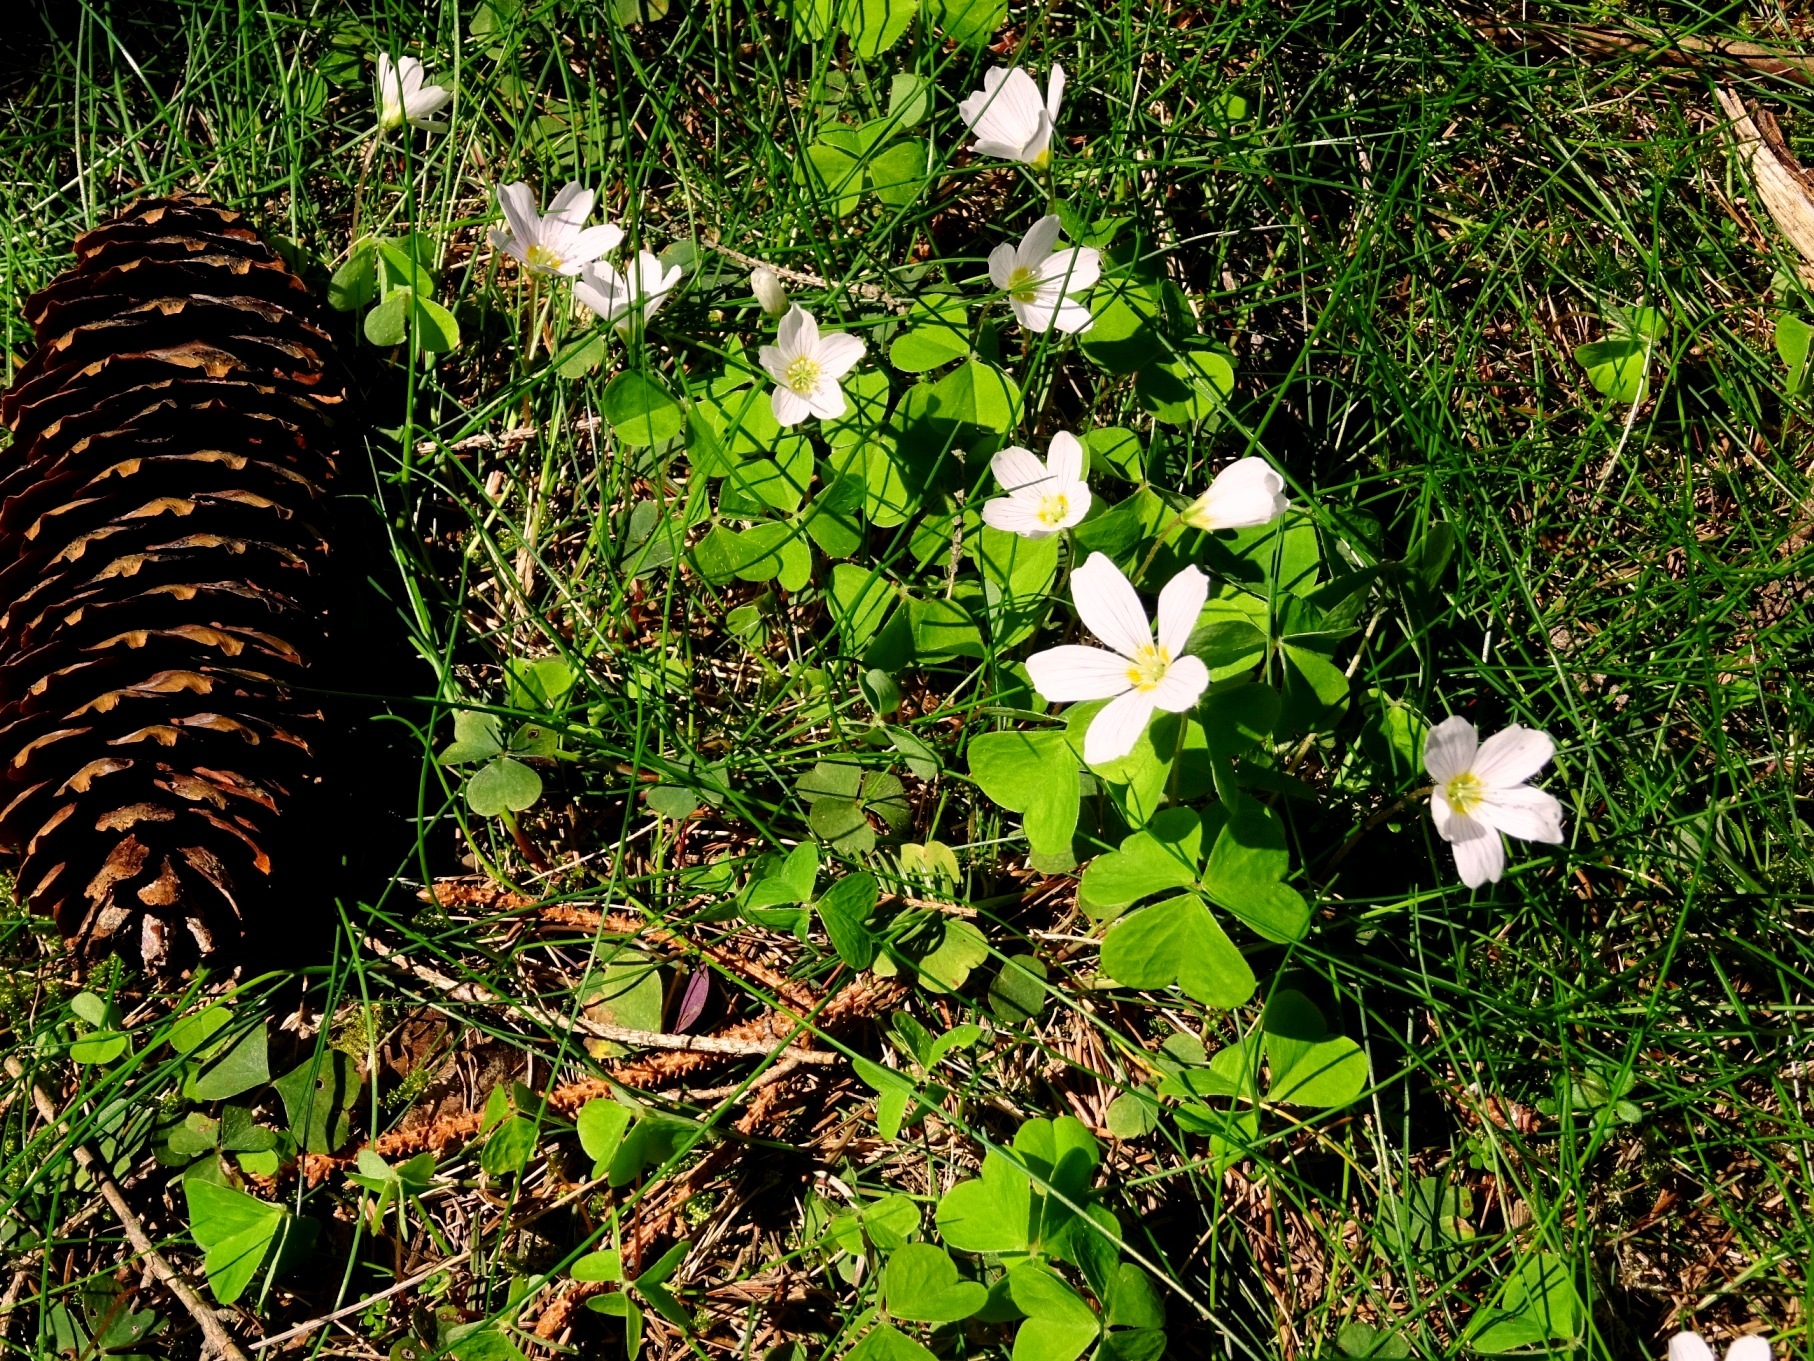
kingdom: Plantae
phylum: Tracheophyta
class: Magnoliopsida
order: Oxalidales
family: Oxalidaceae
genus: Oxalis
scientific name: Oxalis acetosella
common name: Wood-sorrel
